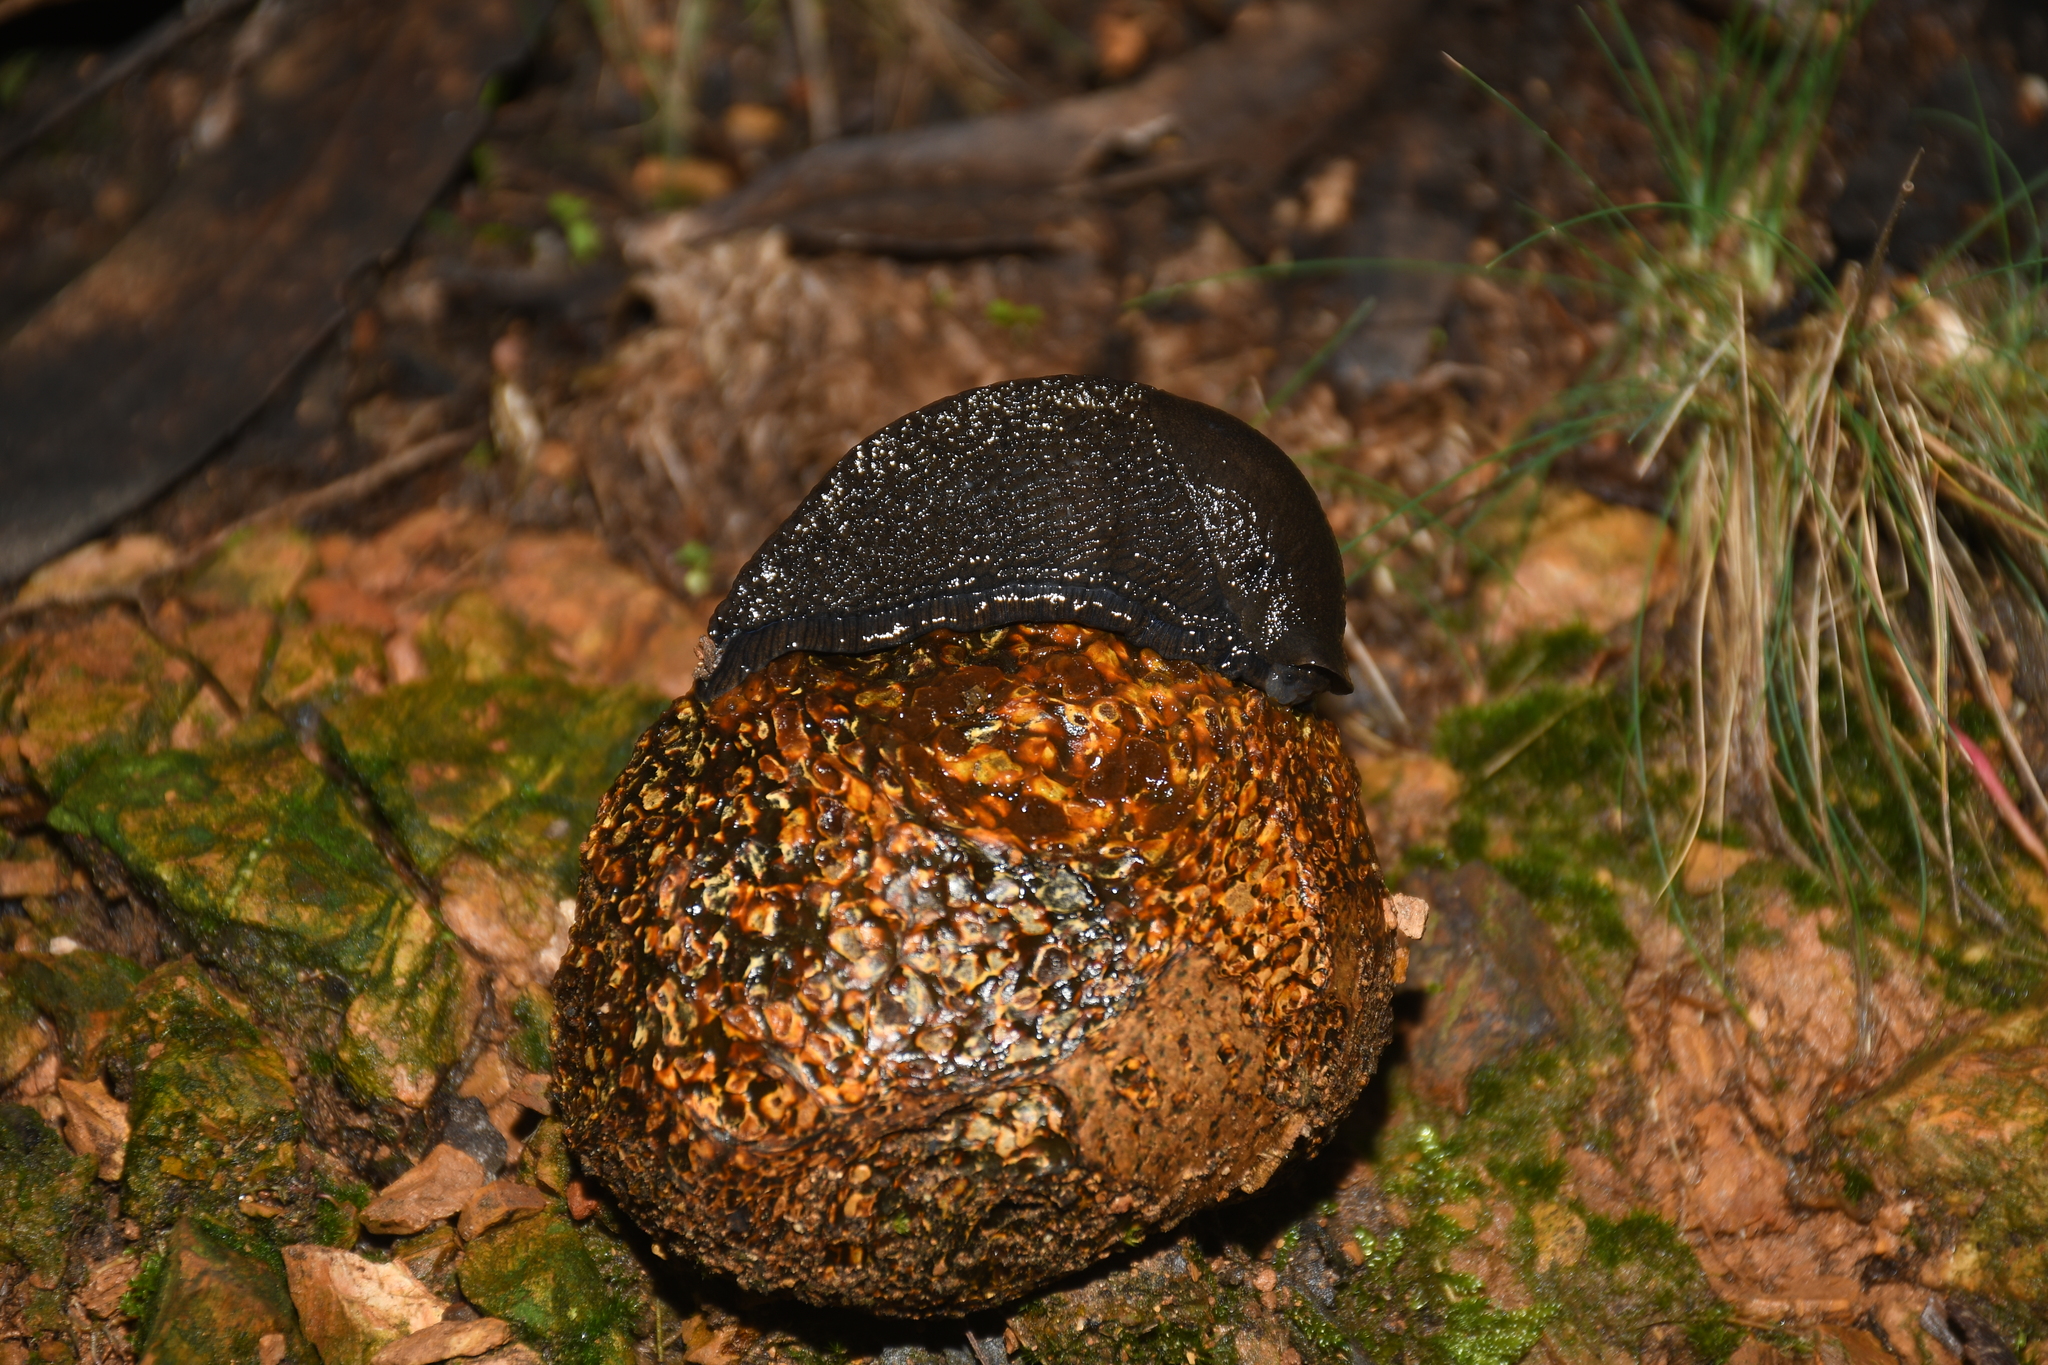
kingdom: Fungi
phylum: Basidiomycota
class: Agaricomycetes
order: Boletales
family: Sclerodermataceae
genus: Pisolithus
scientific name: Pisolithus arhizus
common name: Dyeball
